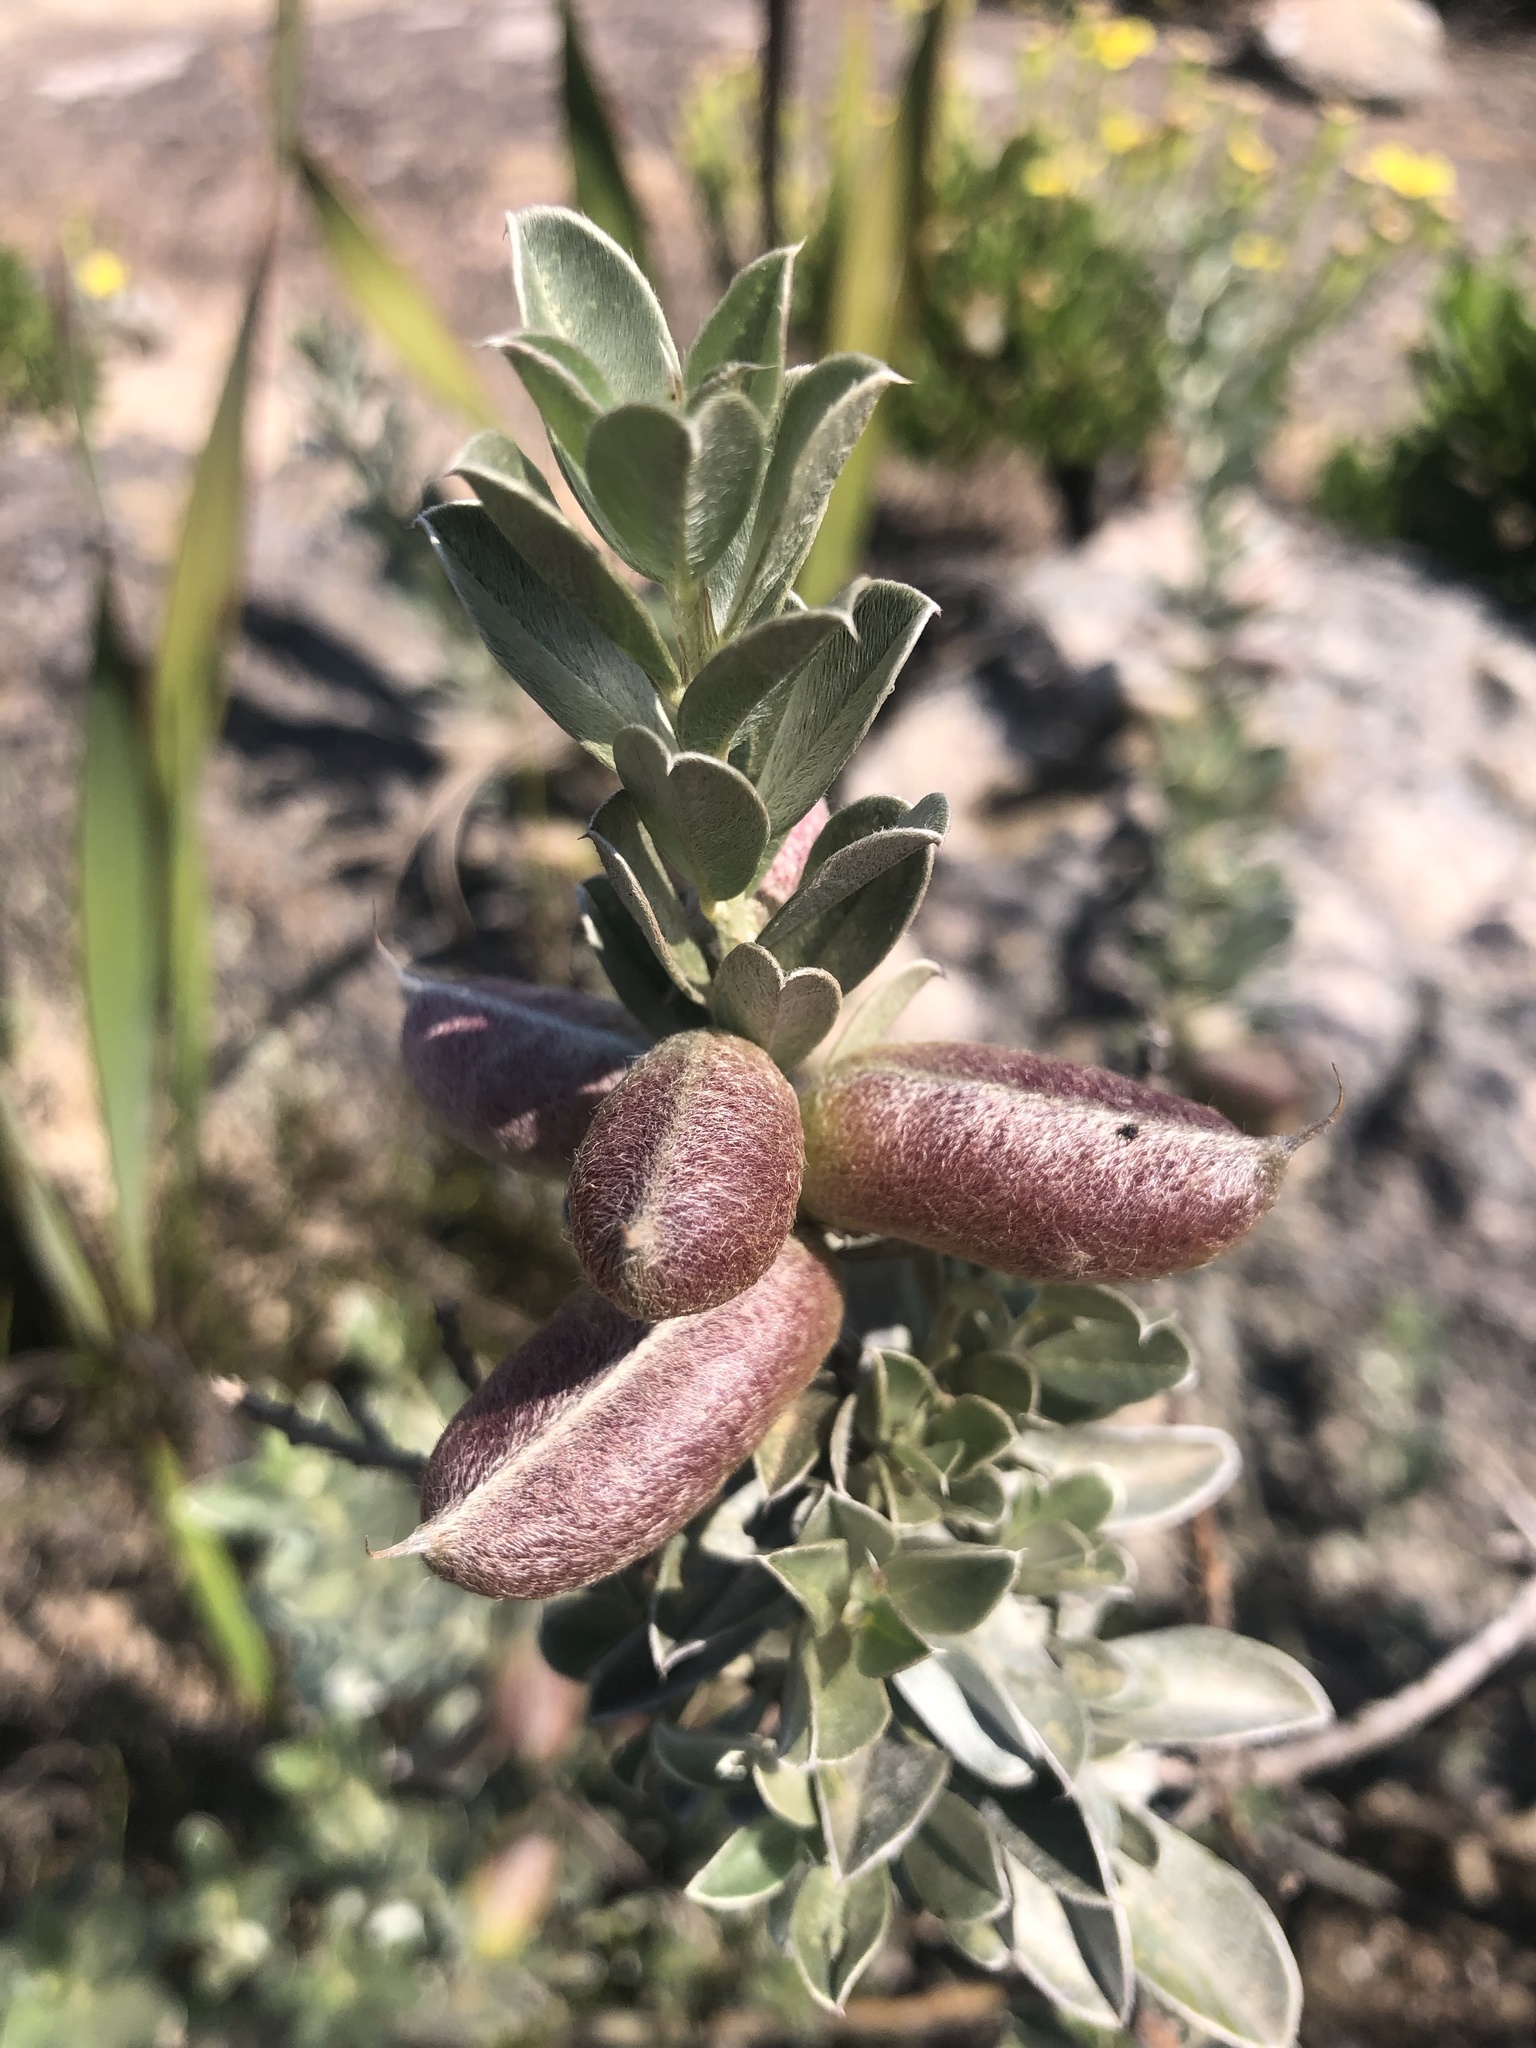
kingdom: Plantae
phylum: Tracheophyta
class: Magnoliopsida
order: Fabales
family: Fabaceae
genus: Podalyria
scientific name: Podalyria sericea
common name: Silver podalyria
